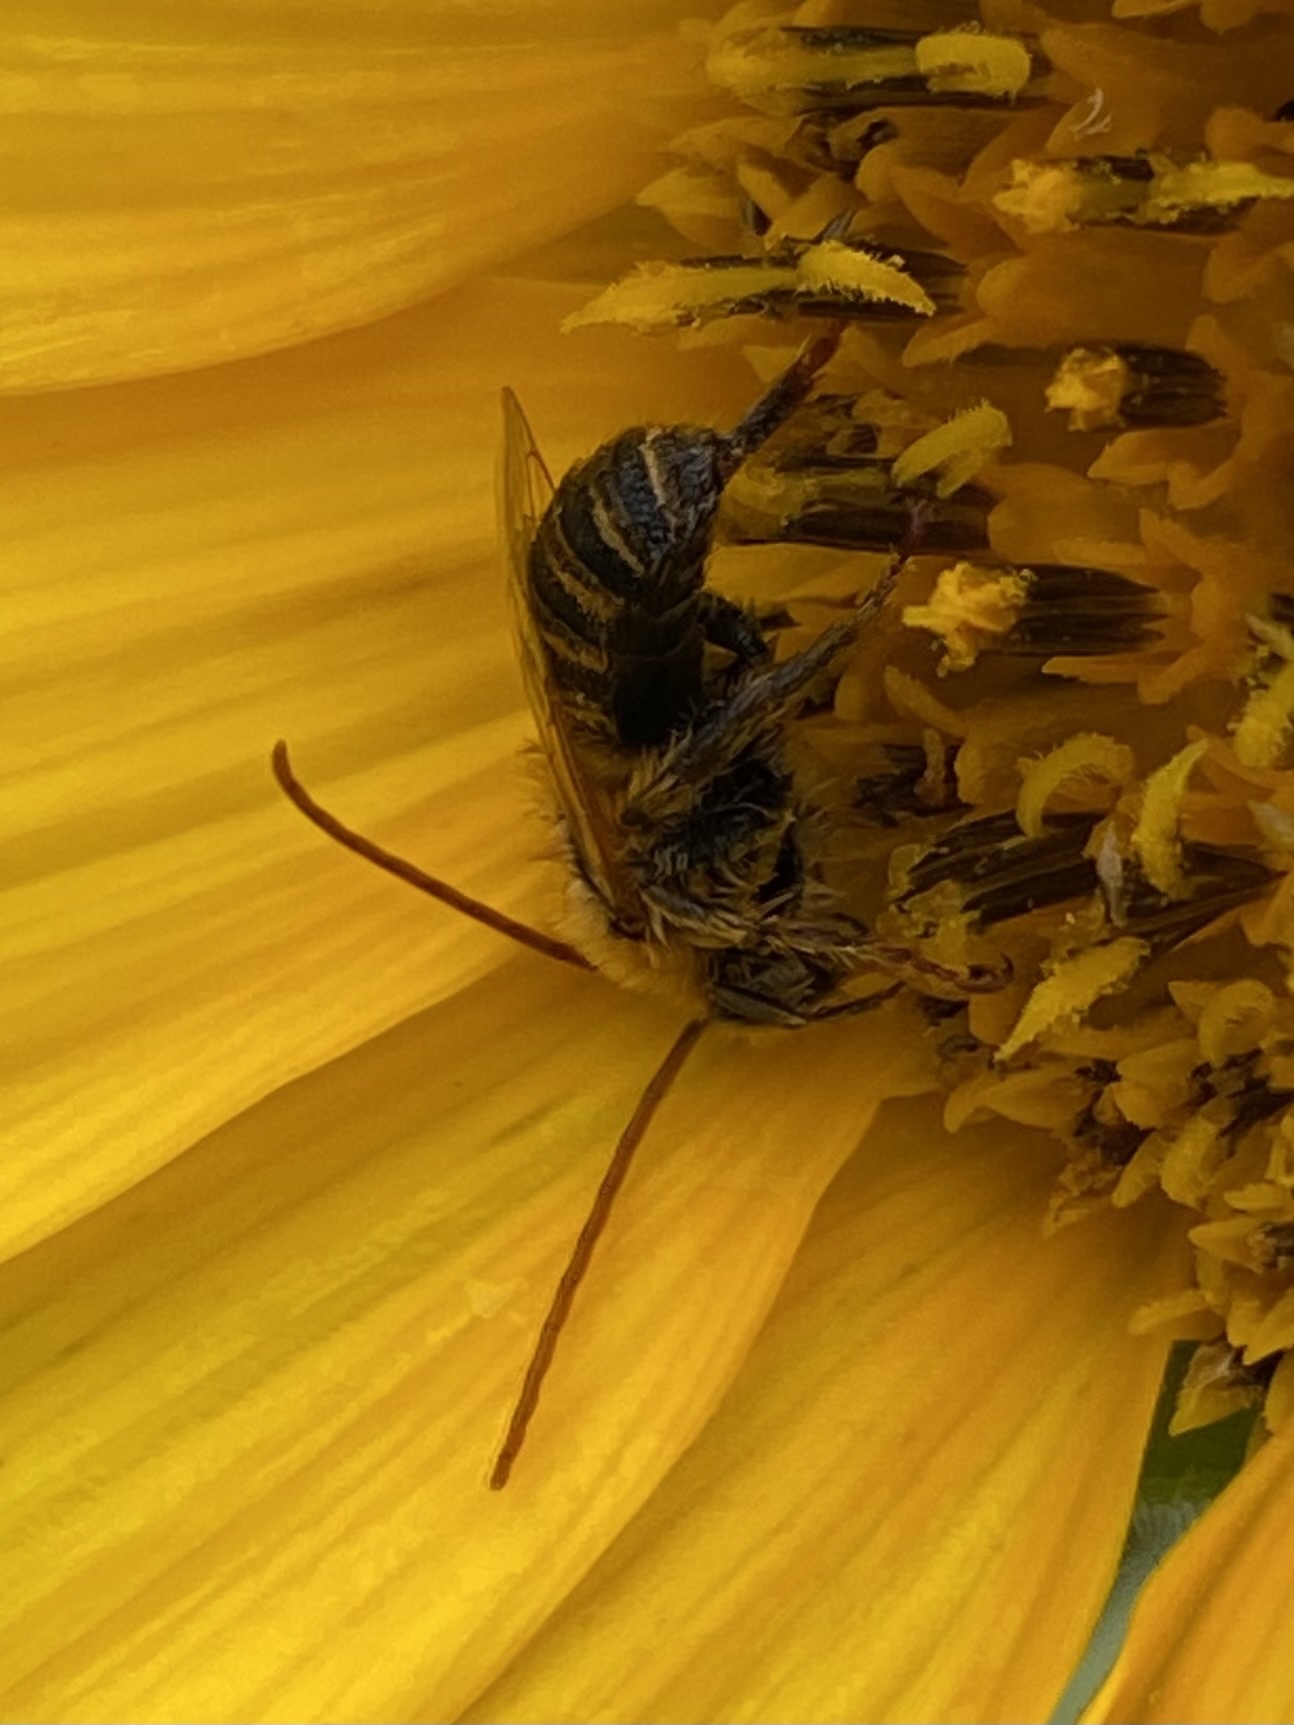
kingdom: Animalia
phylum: Arthropoda
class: Insecta
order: Hymenoptera
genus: Eumelissodes
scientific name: Eumelissodes
